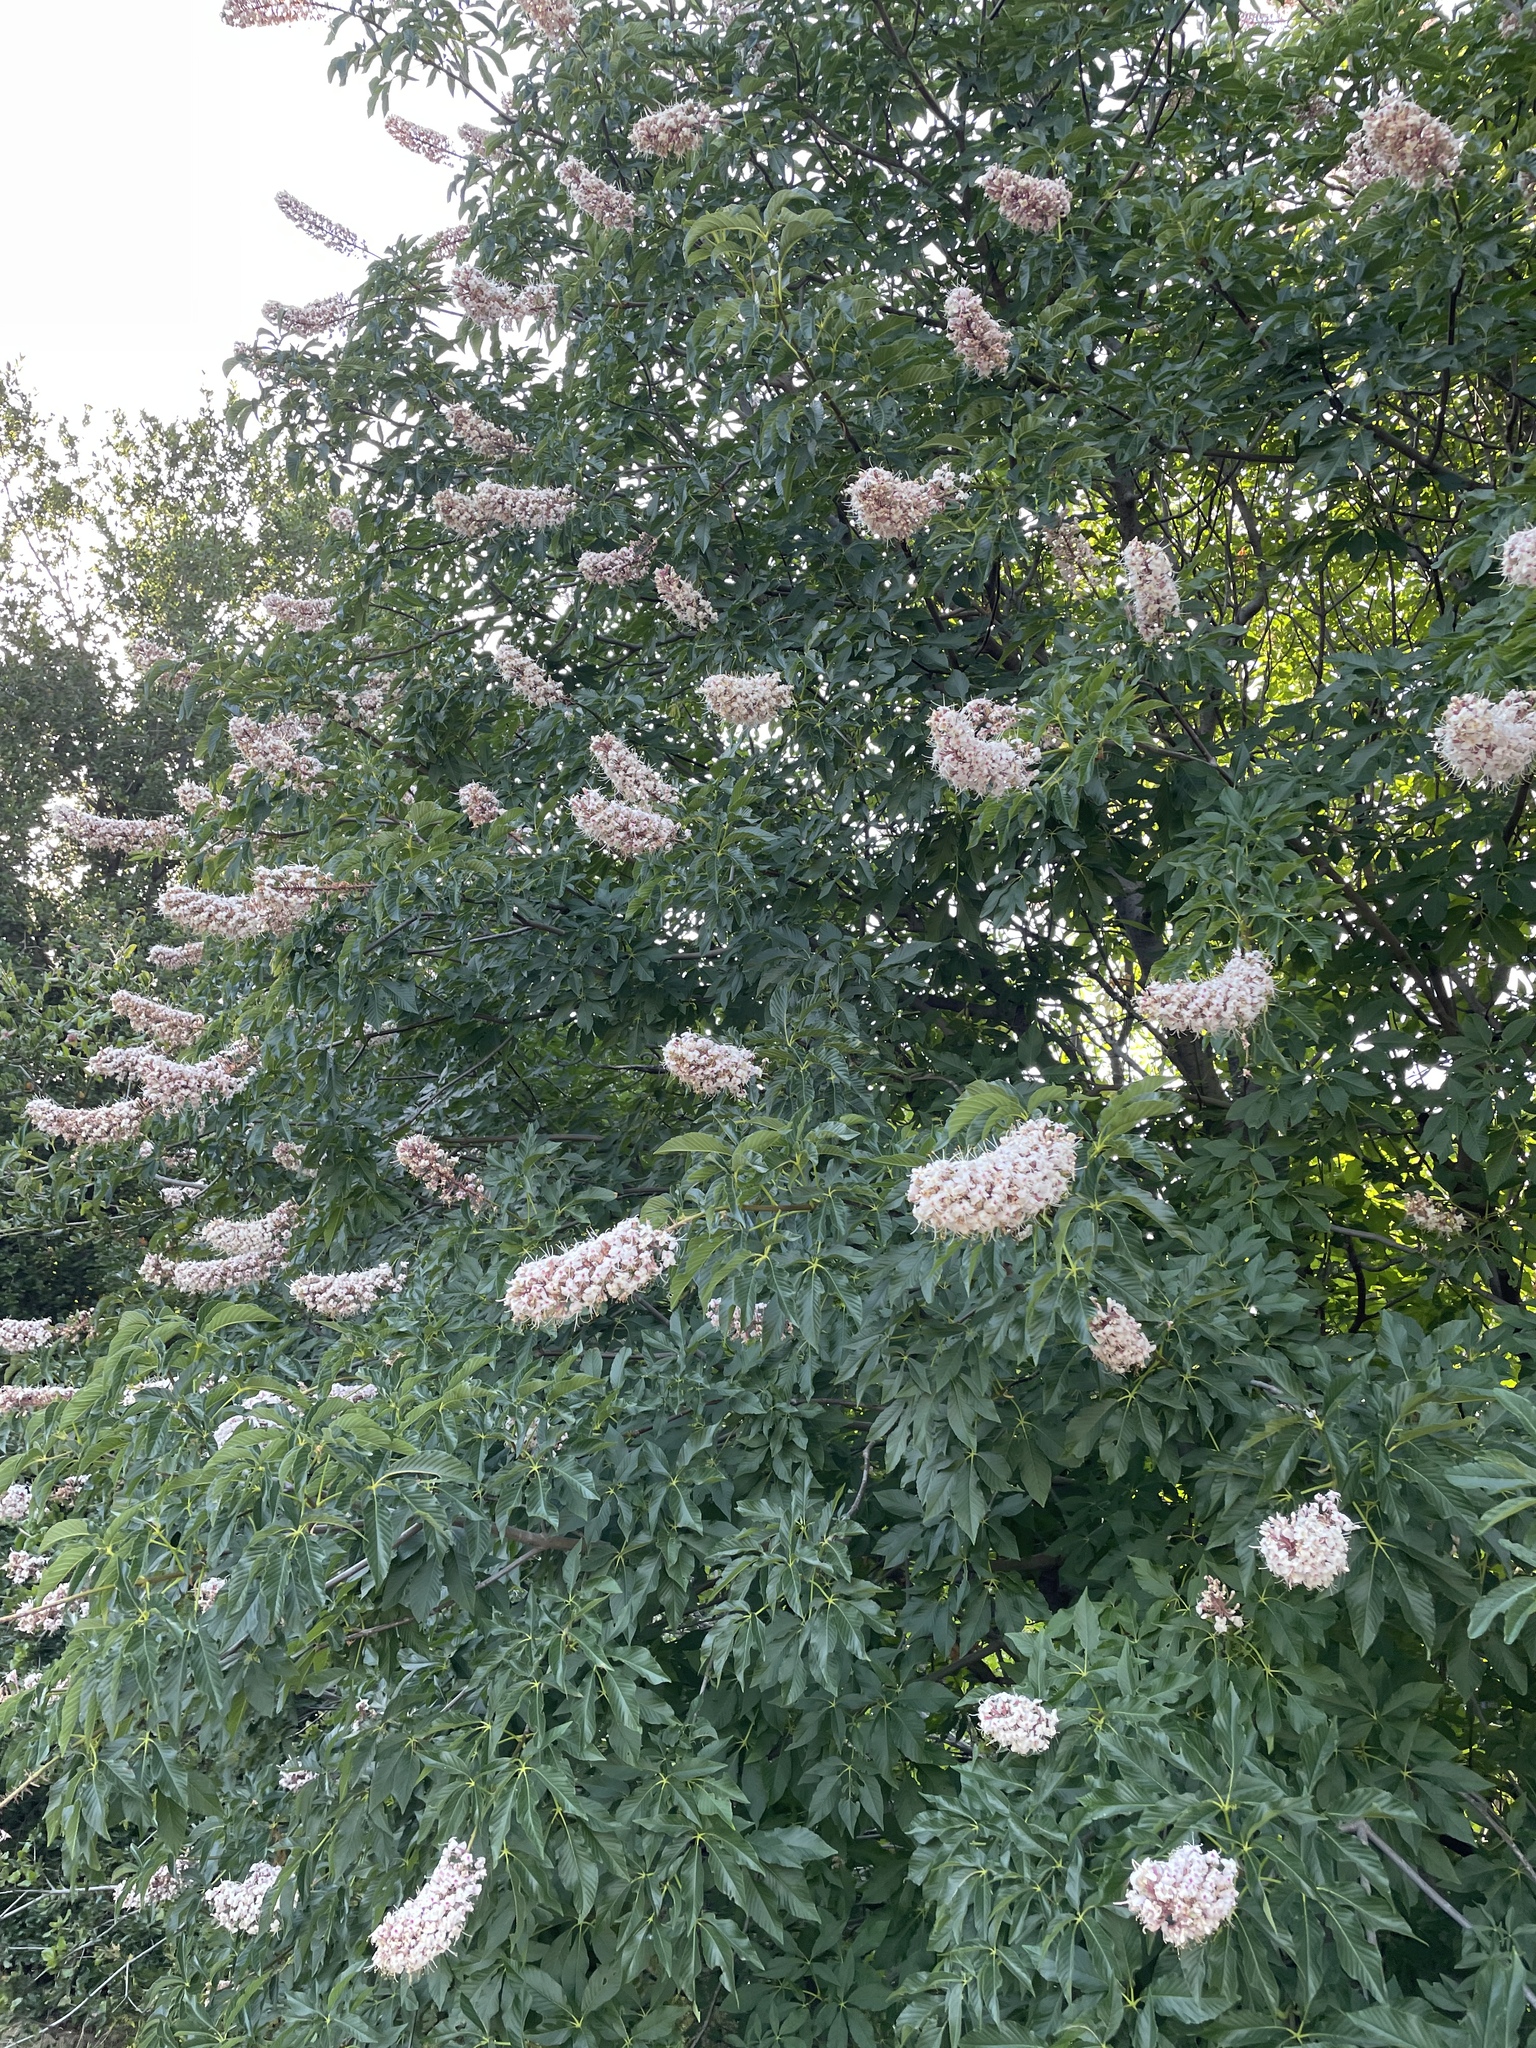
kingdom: Plantae
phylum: Tracheophyta
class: Magnoliopsida
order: Sapindales
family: Sapindaceae
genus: Aesculus
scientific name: Aesculus californica
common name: California buckeye
